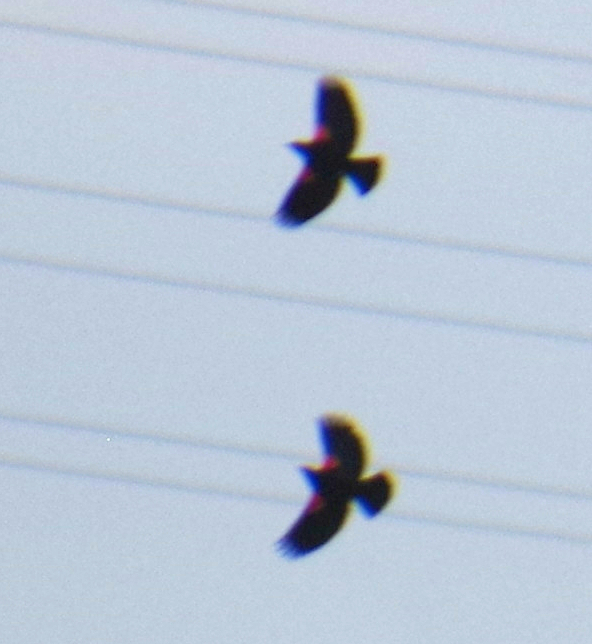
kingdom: Animalia
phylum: Chordata
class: Aves
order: Passeriformes
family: Icteridae
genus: Agelaius
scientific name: Agelaius phoeniceus
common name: Red-winged blackbird
